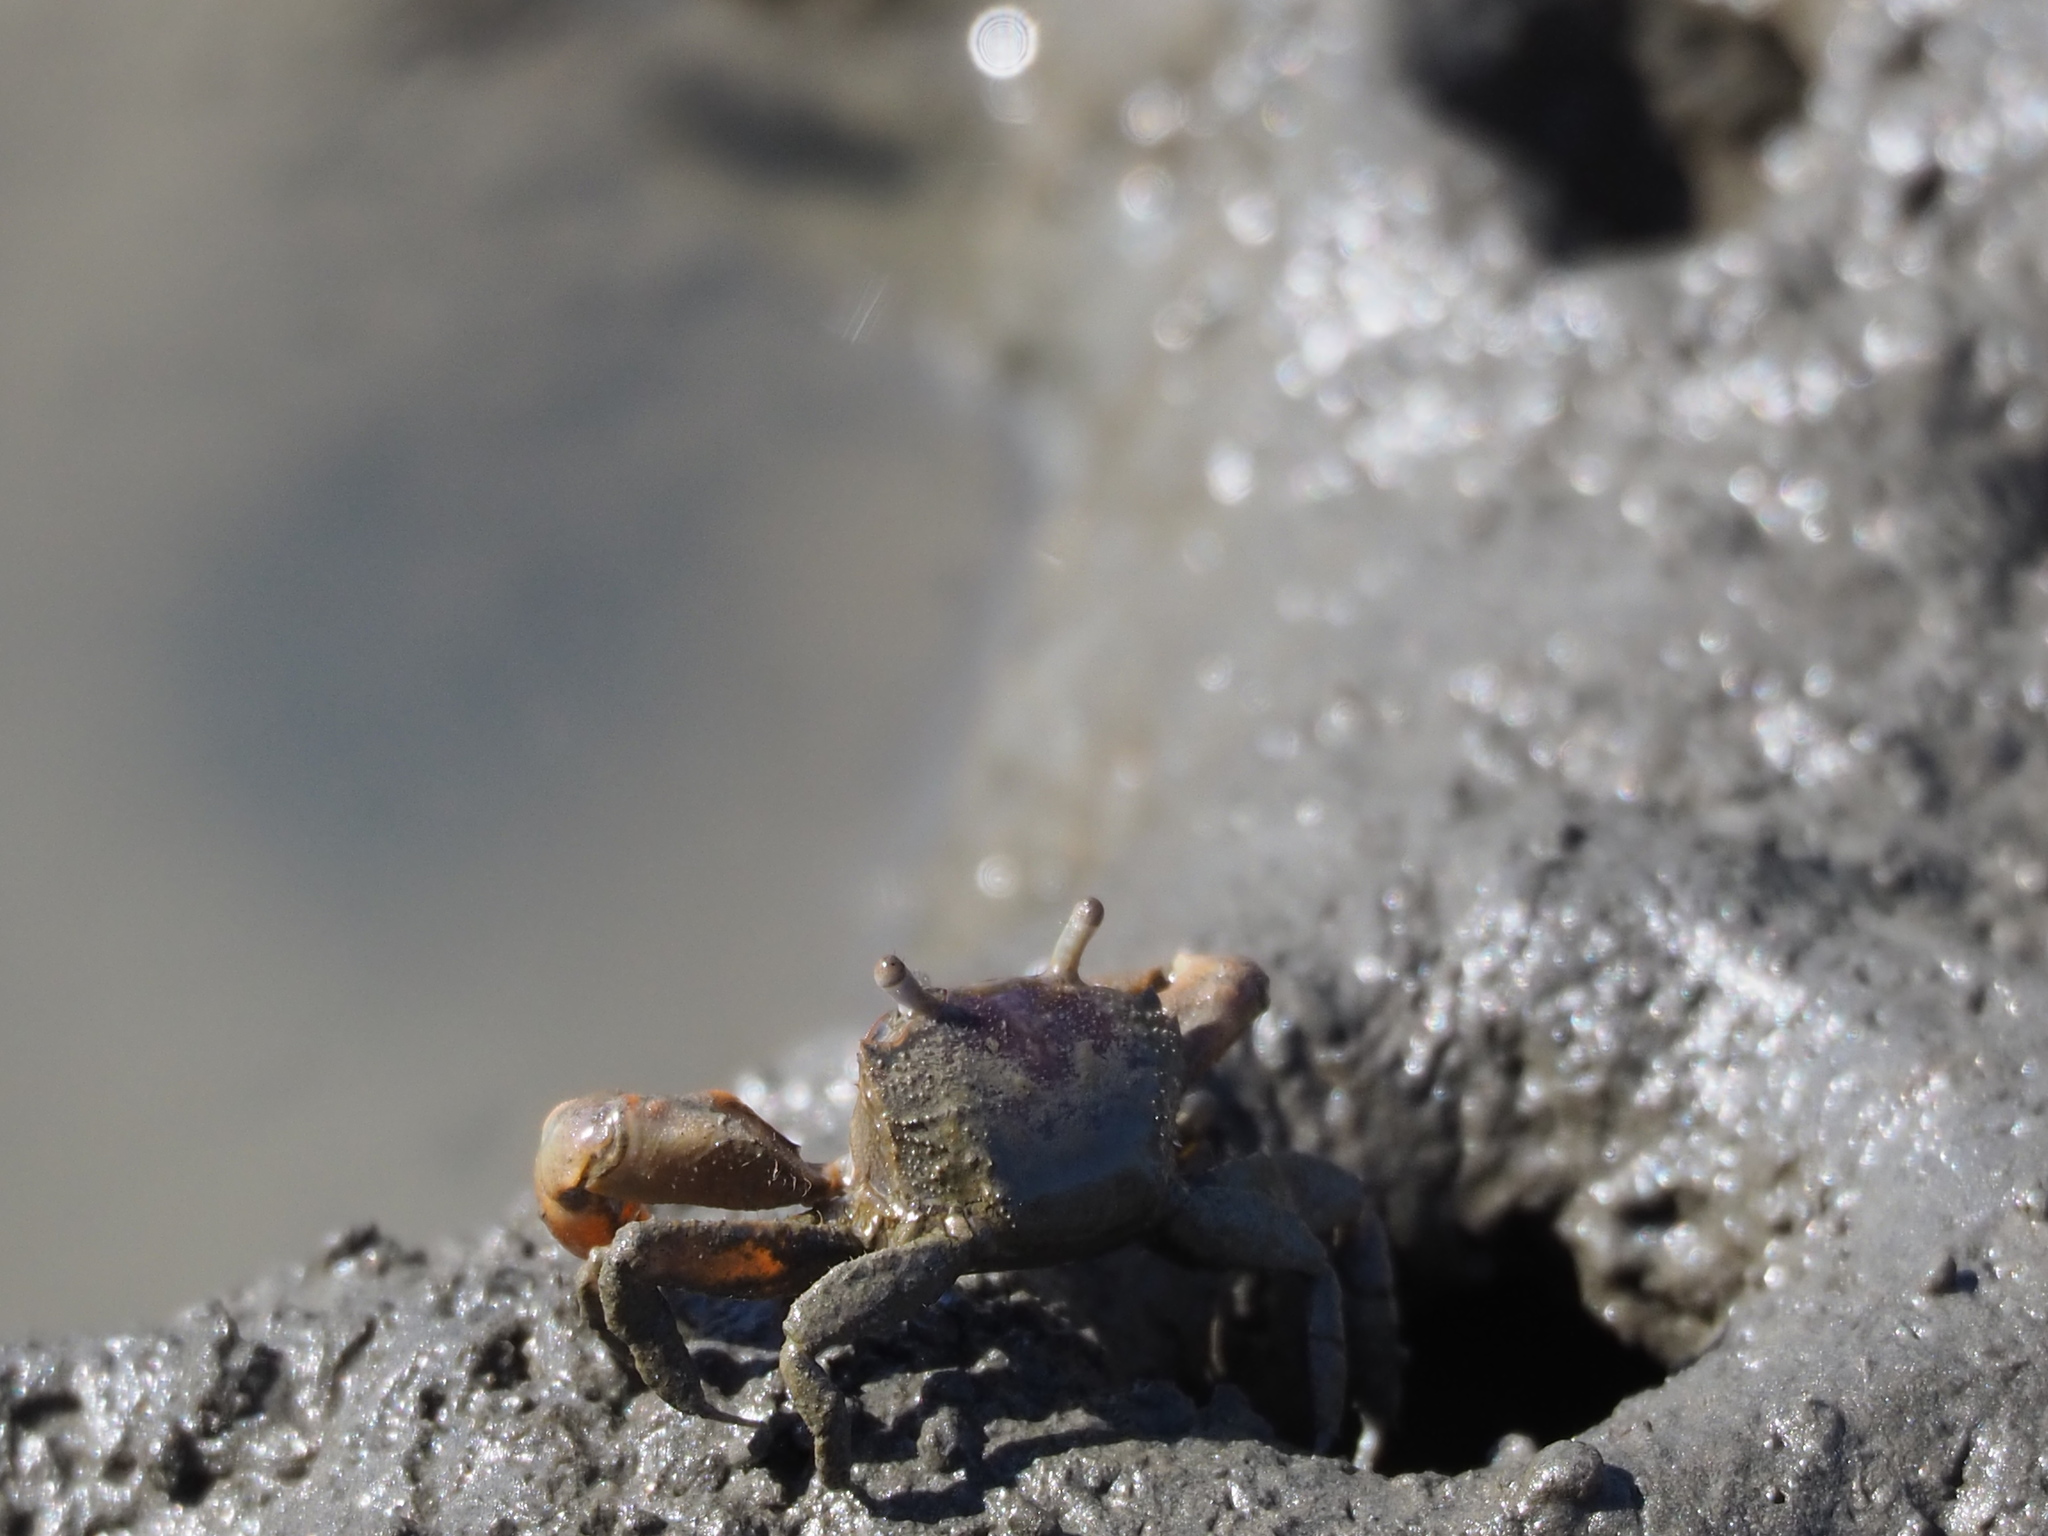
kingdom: Animalia
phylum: Arthropoda
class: Malacostraca
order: Decapoda
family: Varunidae
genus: Metaplax
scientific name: Metaplax elegans
